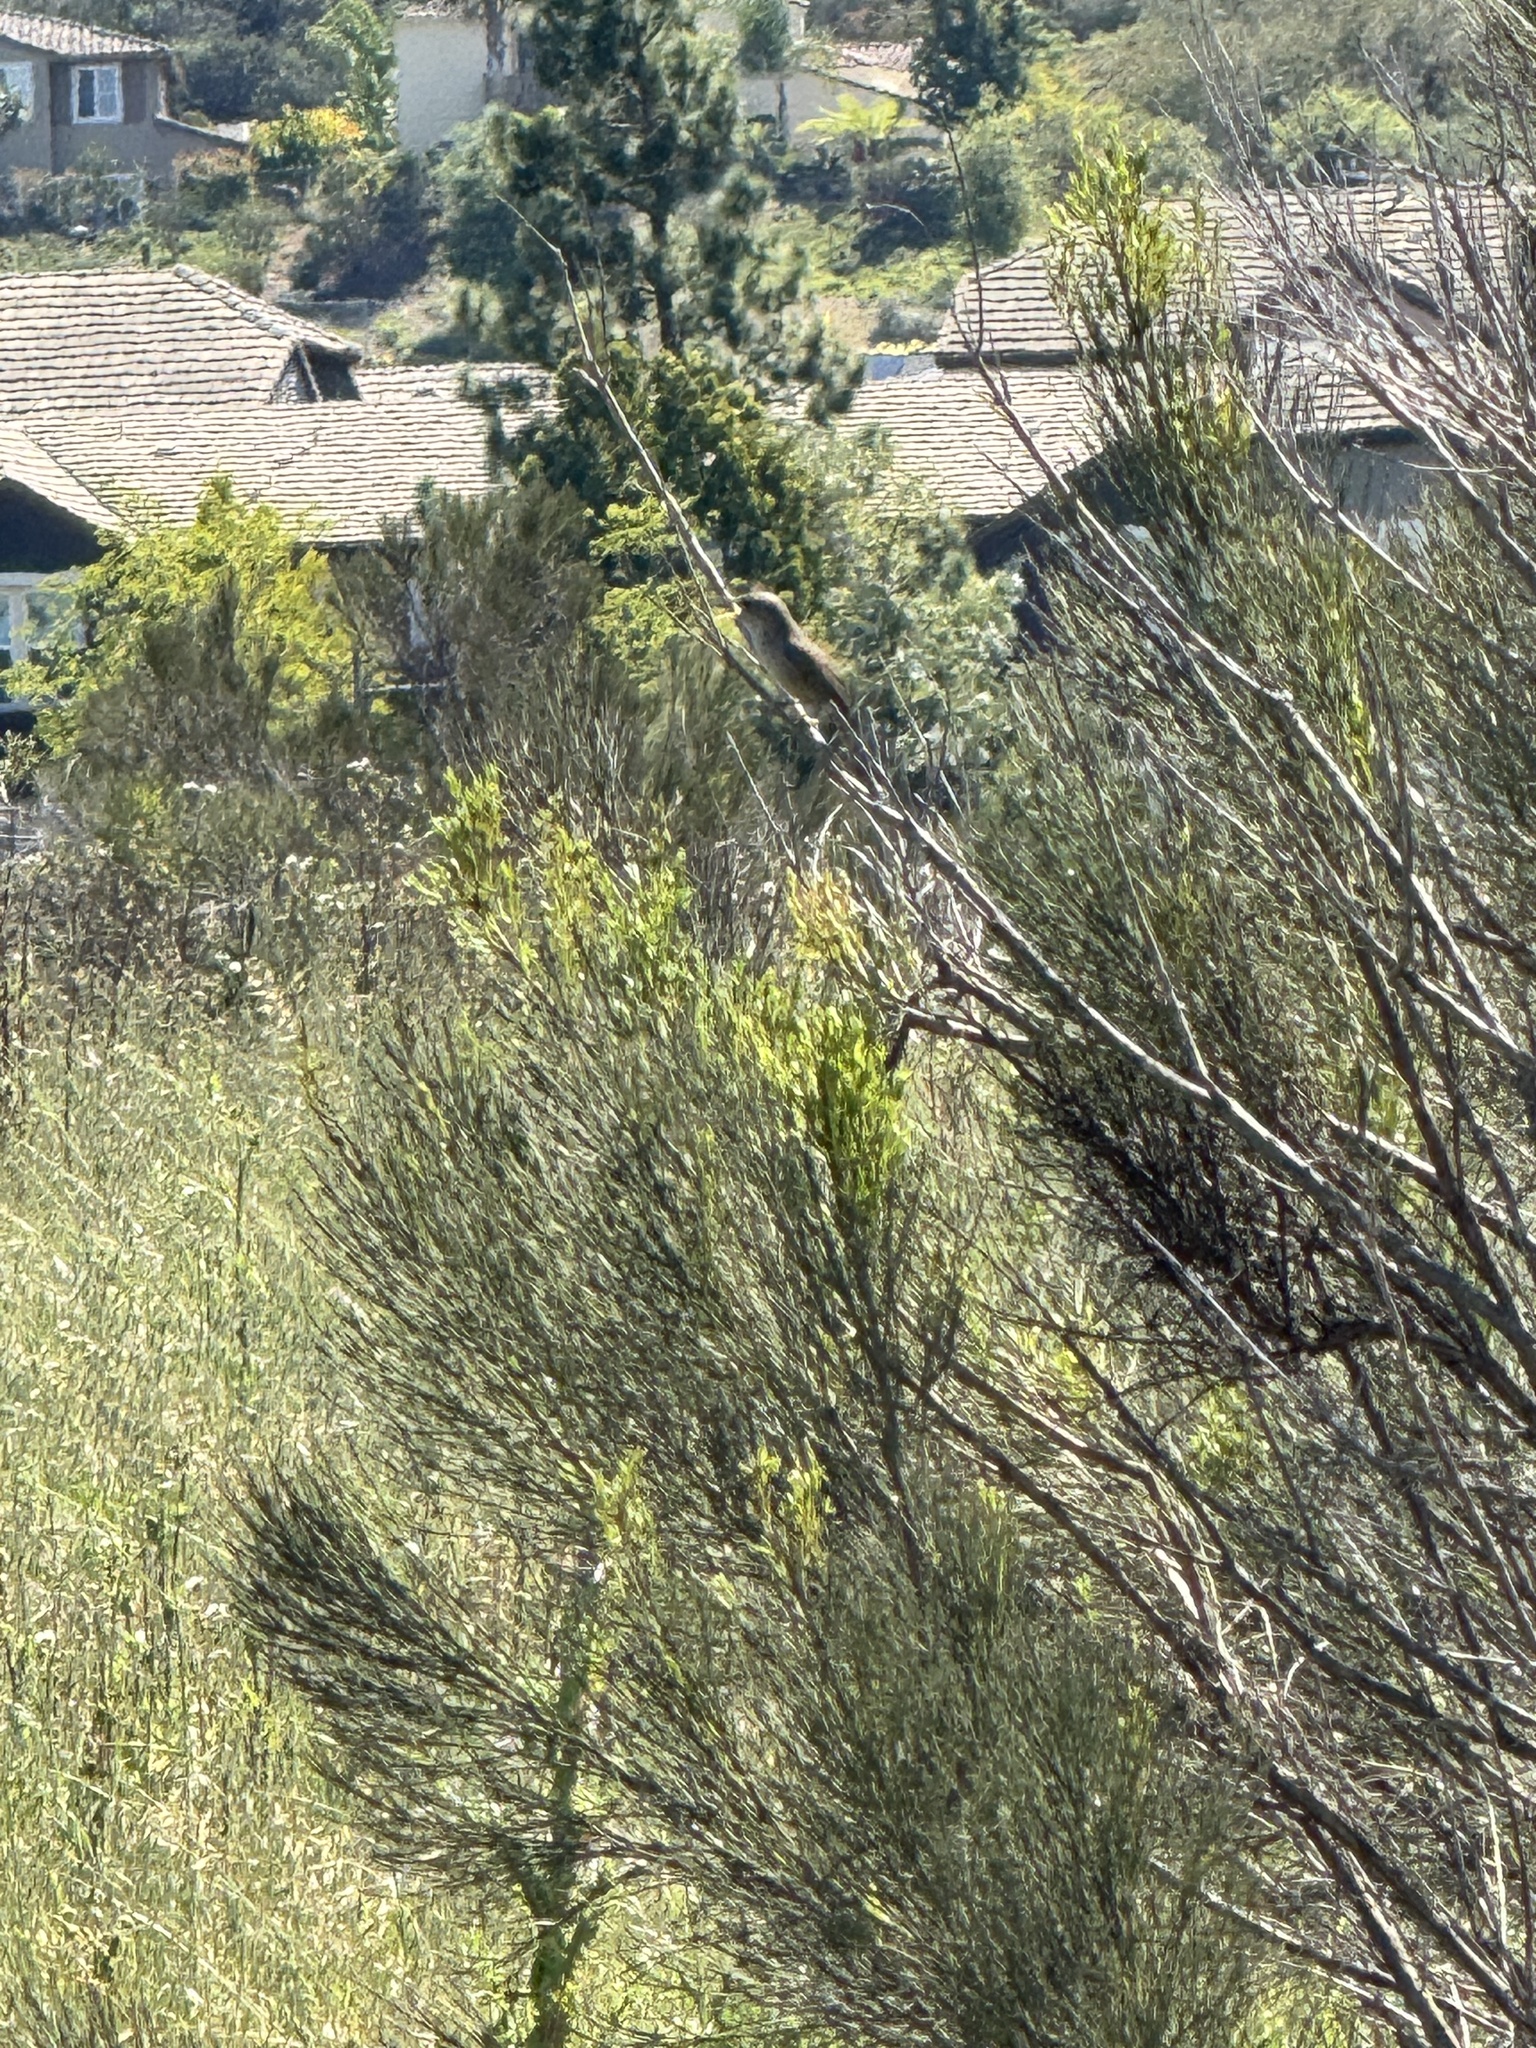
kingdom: Animalia
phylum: Chordata
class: Aves
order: Passeriformes
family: Troglodytidae
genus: Troglodytes
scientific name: Troglodytes aedon
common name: House wren
